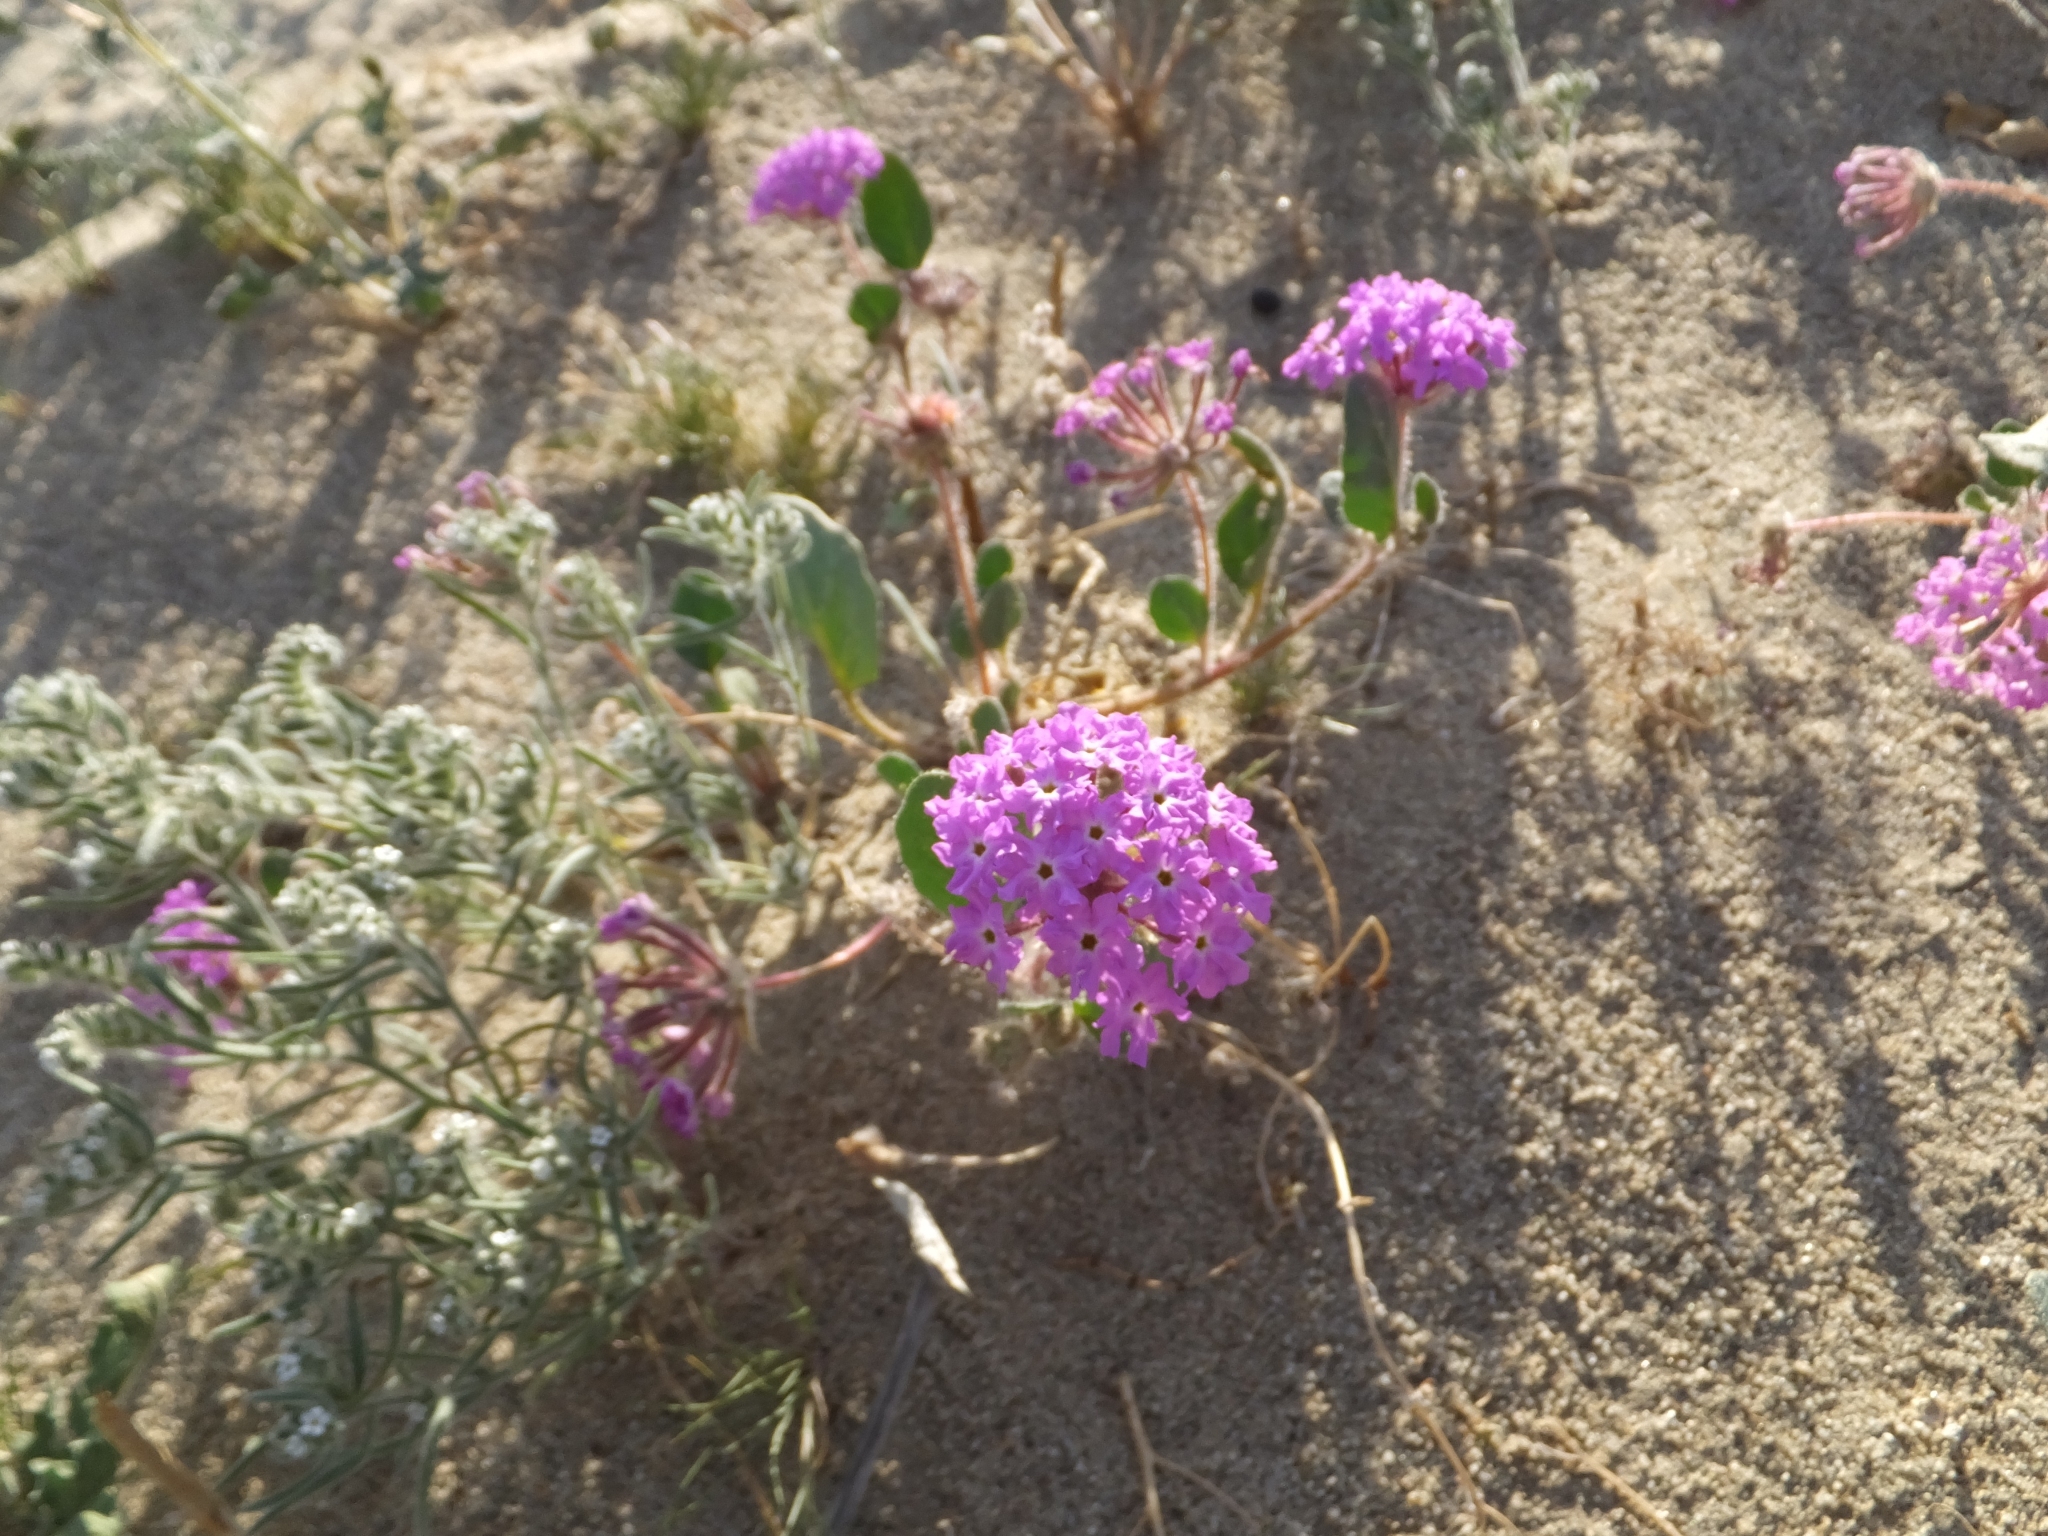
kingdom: Plantae
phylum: Tracheophyta
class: Magnoliopsida
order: Caryophyllales
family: Nyctaginaceae
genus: Abronia
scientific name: Abronia villosa
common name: Desert sand-verbena
